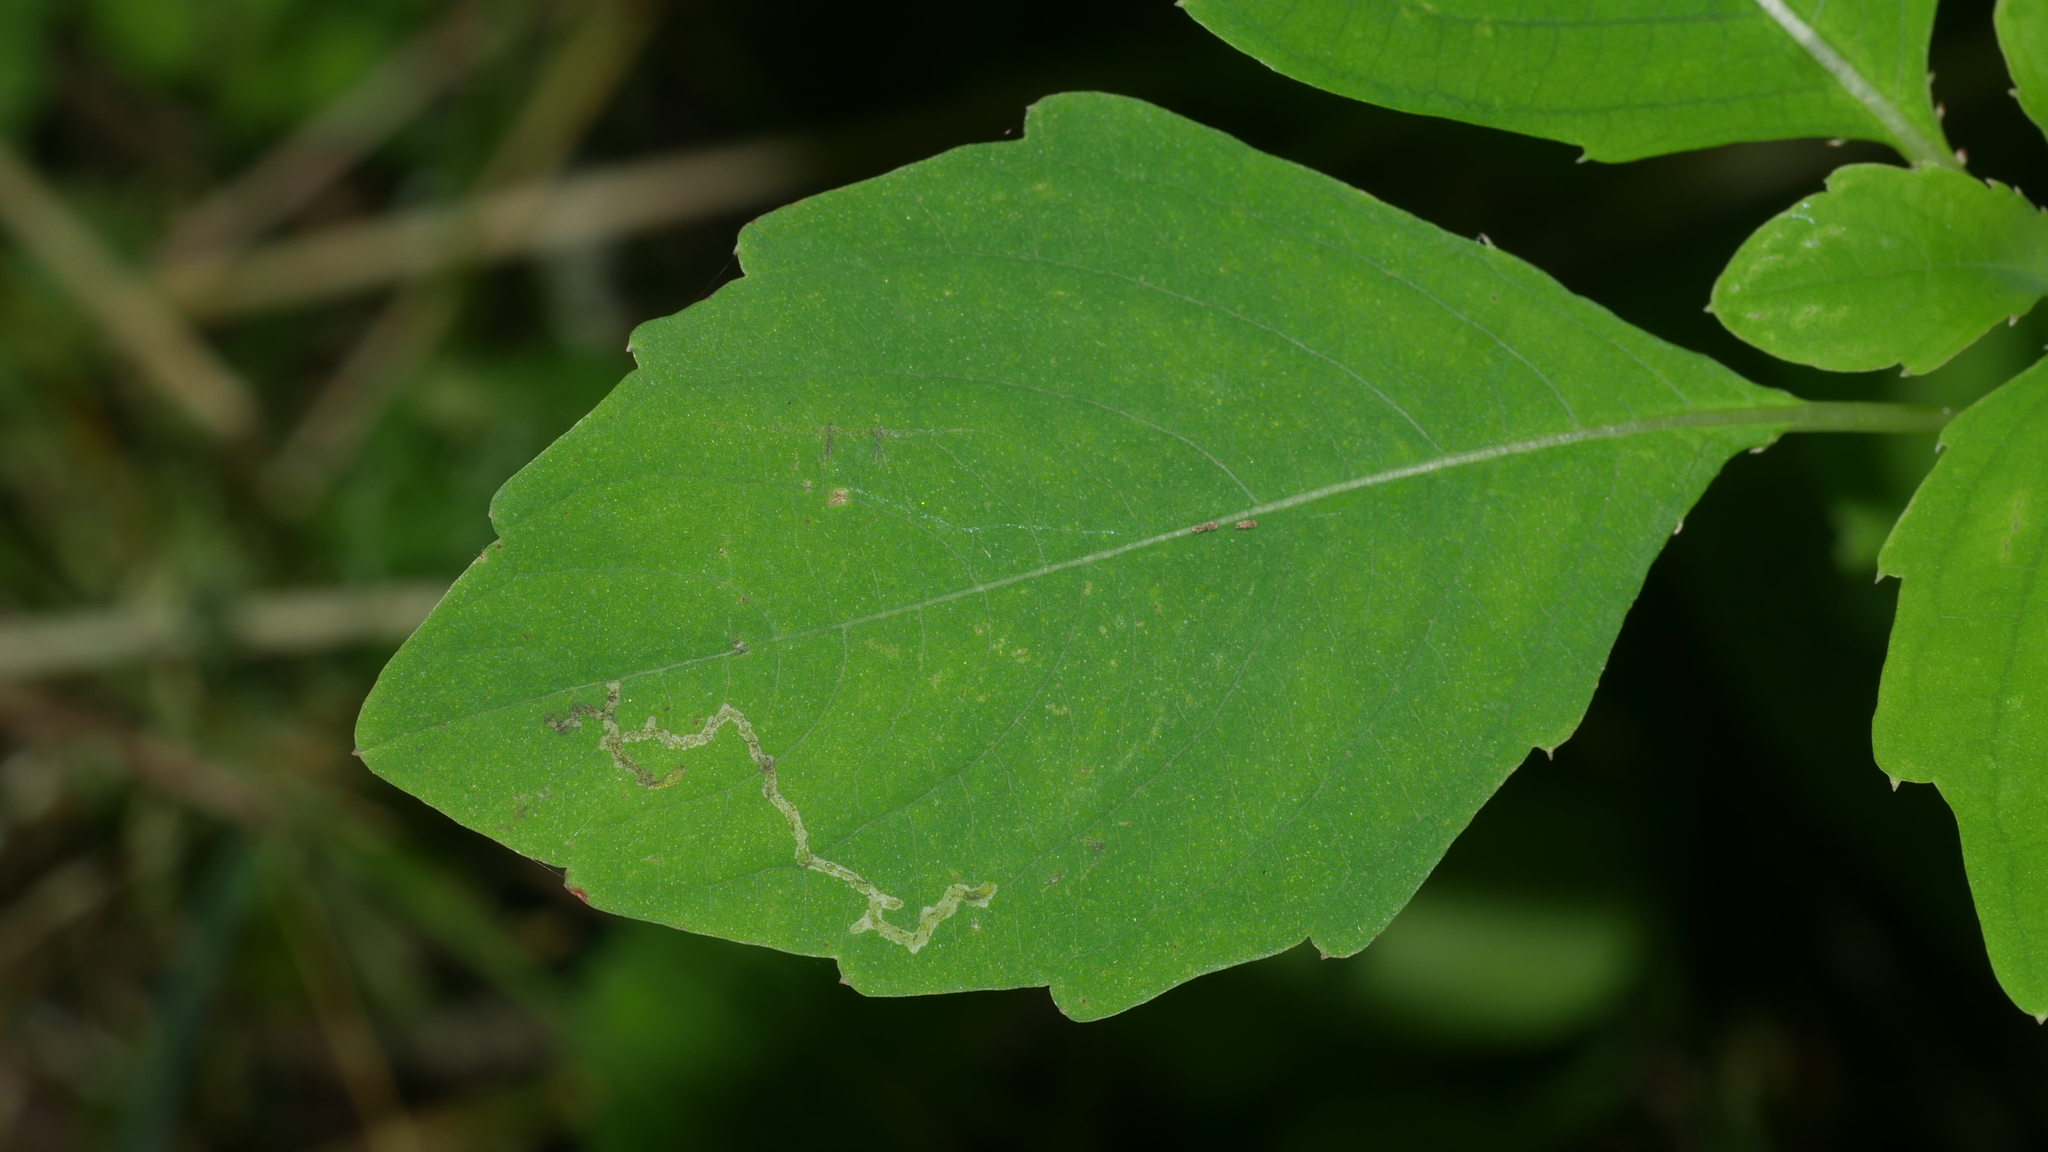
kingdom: Animalia
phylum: Arthropoda
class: Insecta
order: Diptera
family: Agromyzidae
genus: Phytoliriomyza
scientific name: Phytoliriomyza melampyga
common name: Jewelweed leaf-miner fly
